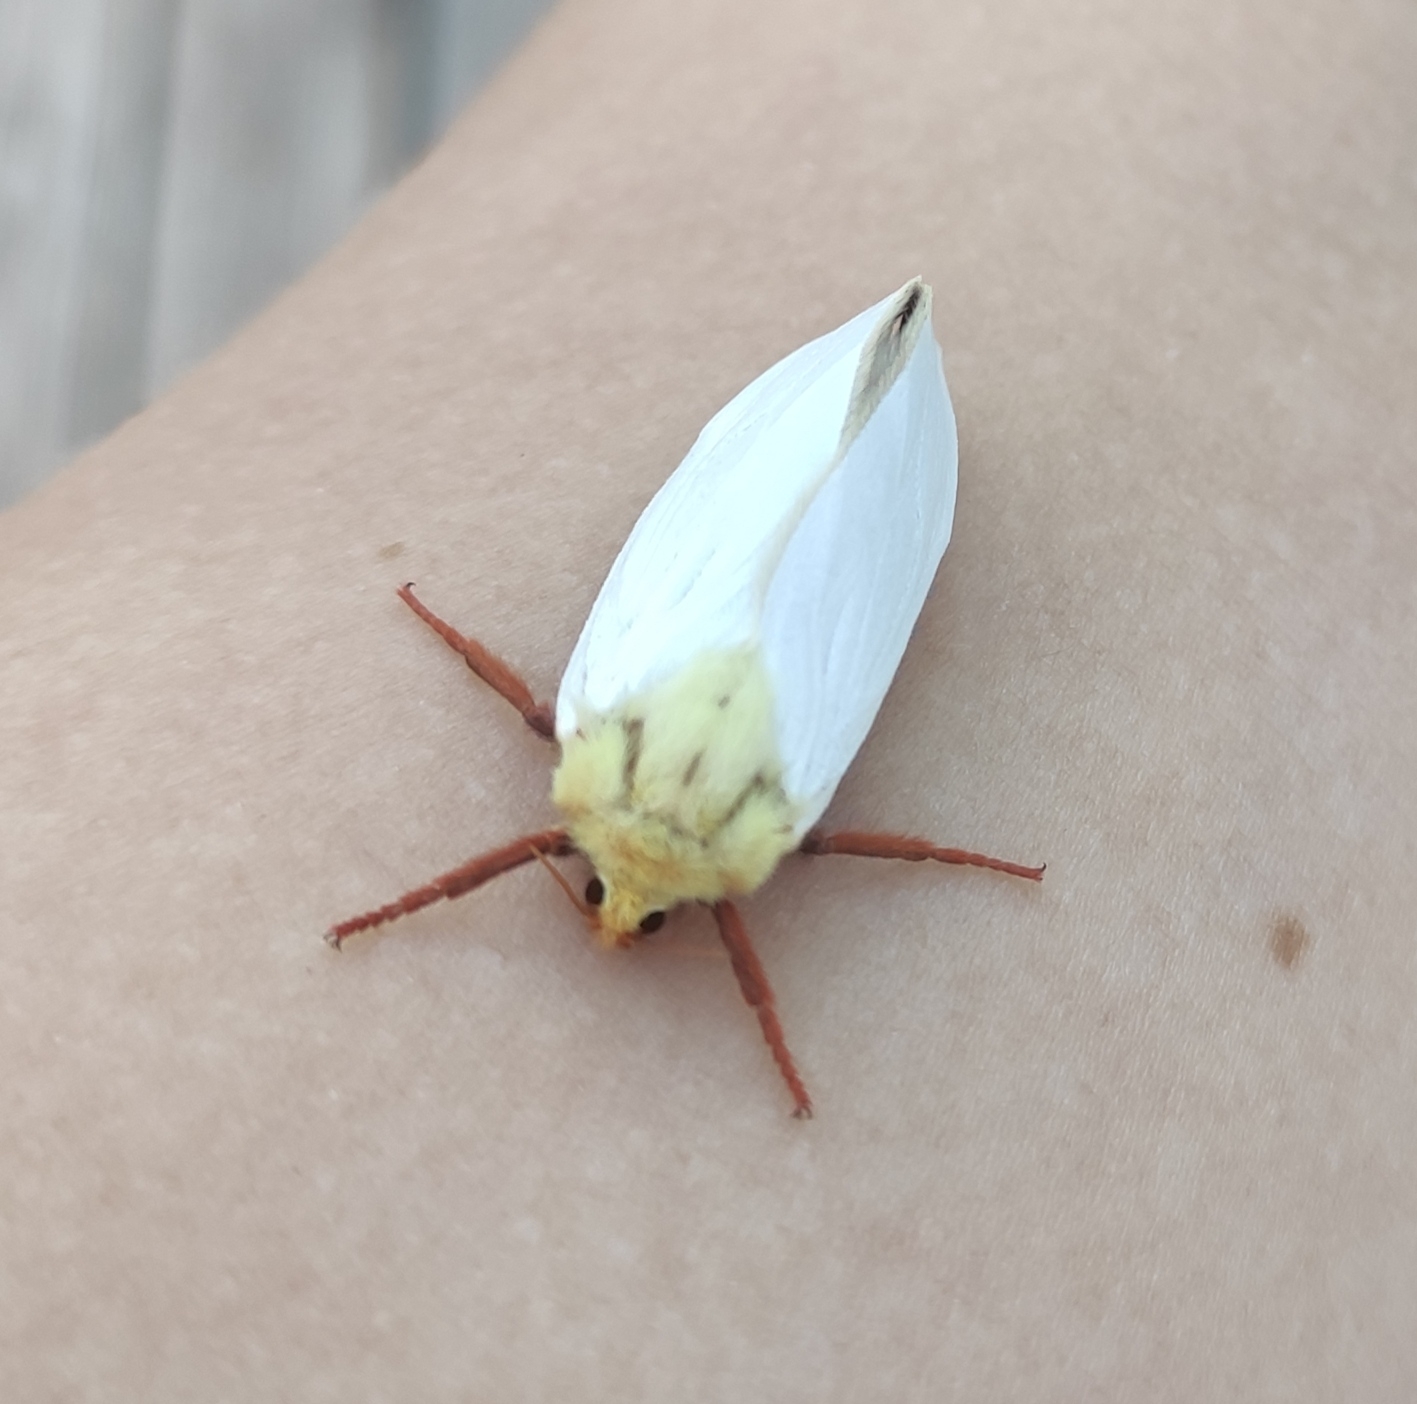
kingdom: Animalia
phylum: Arthropoda
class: Insecta
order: Lepidoptera
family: Hepialidae
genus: Hepialus
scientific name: Hepialus humuli
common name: Ghost moth
